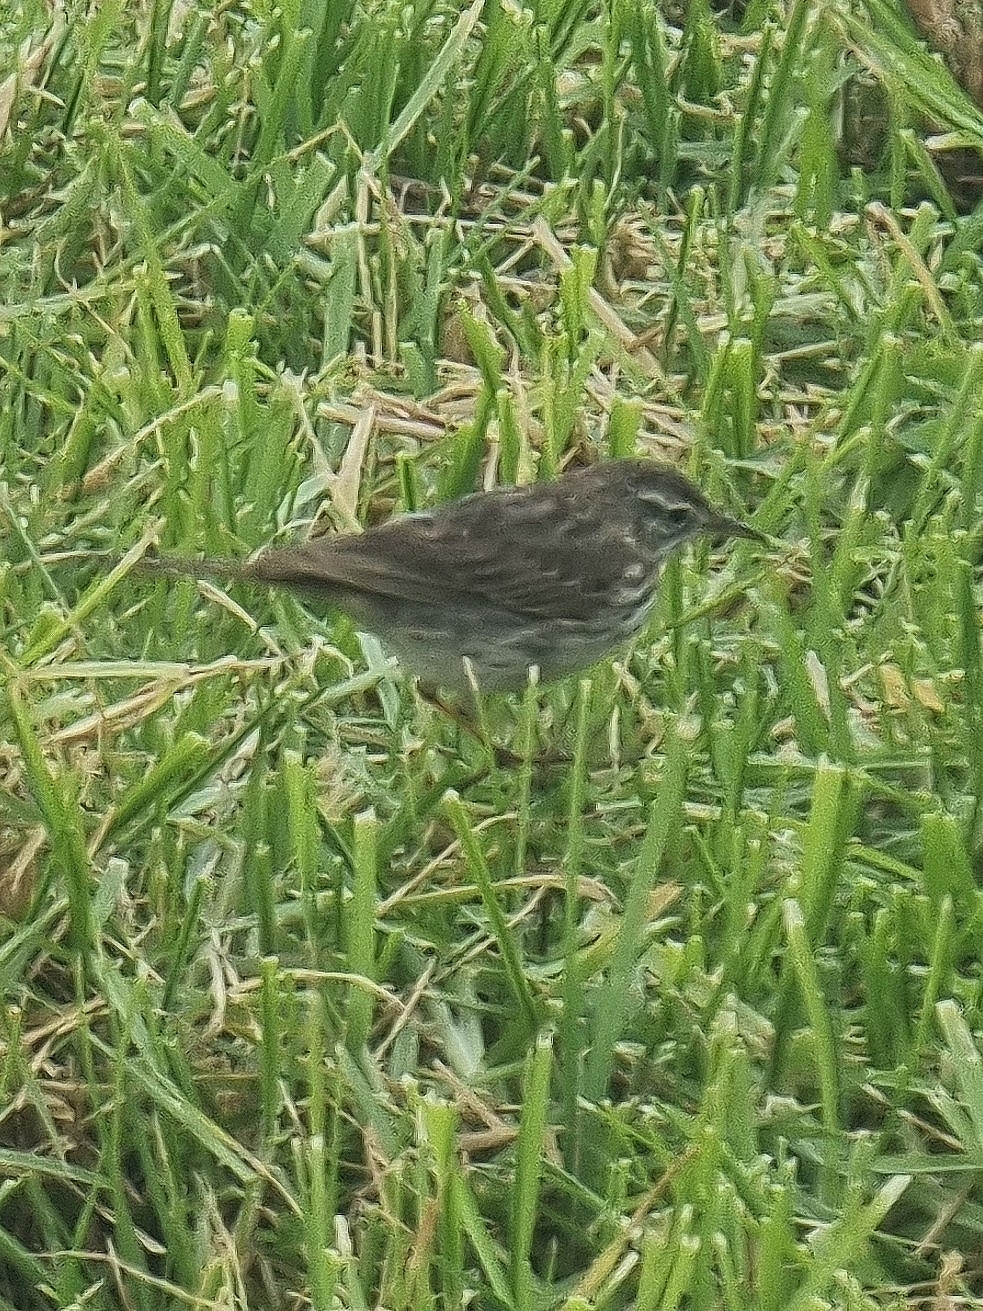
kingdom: Animalia
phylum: Chordata
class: Aves
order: Passeriformes
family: Motacillidae
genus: Anthus
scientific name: Anthus berthelotii
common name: Berthelot's pipit
